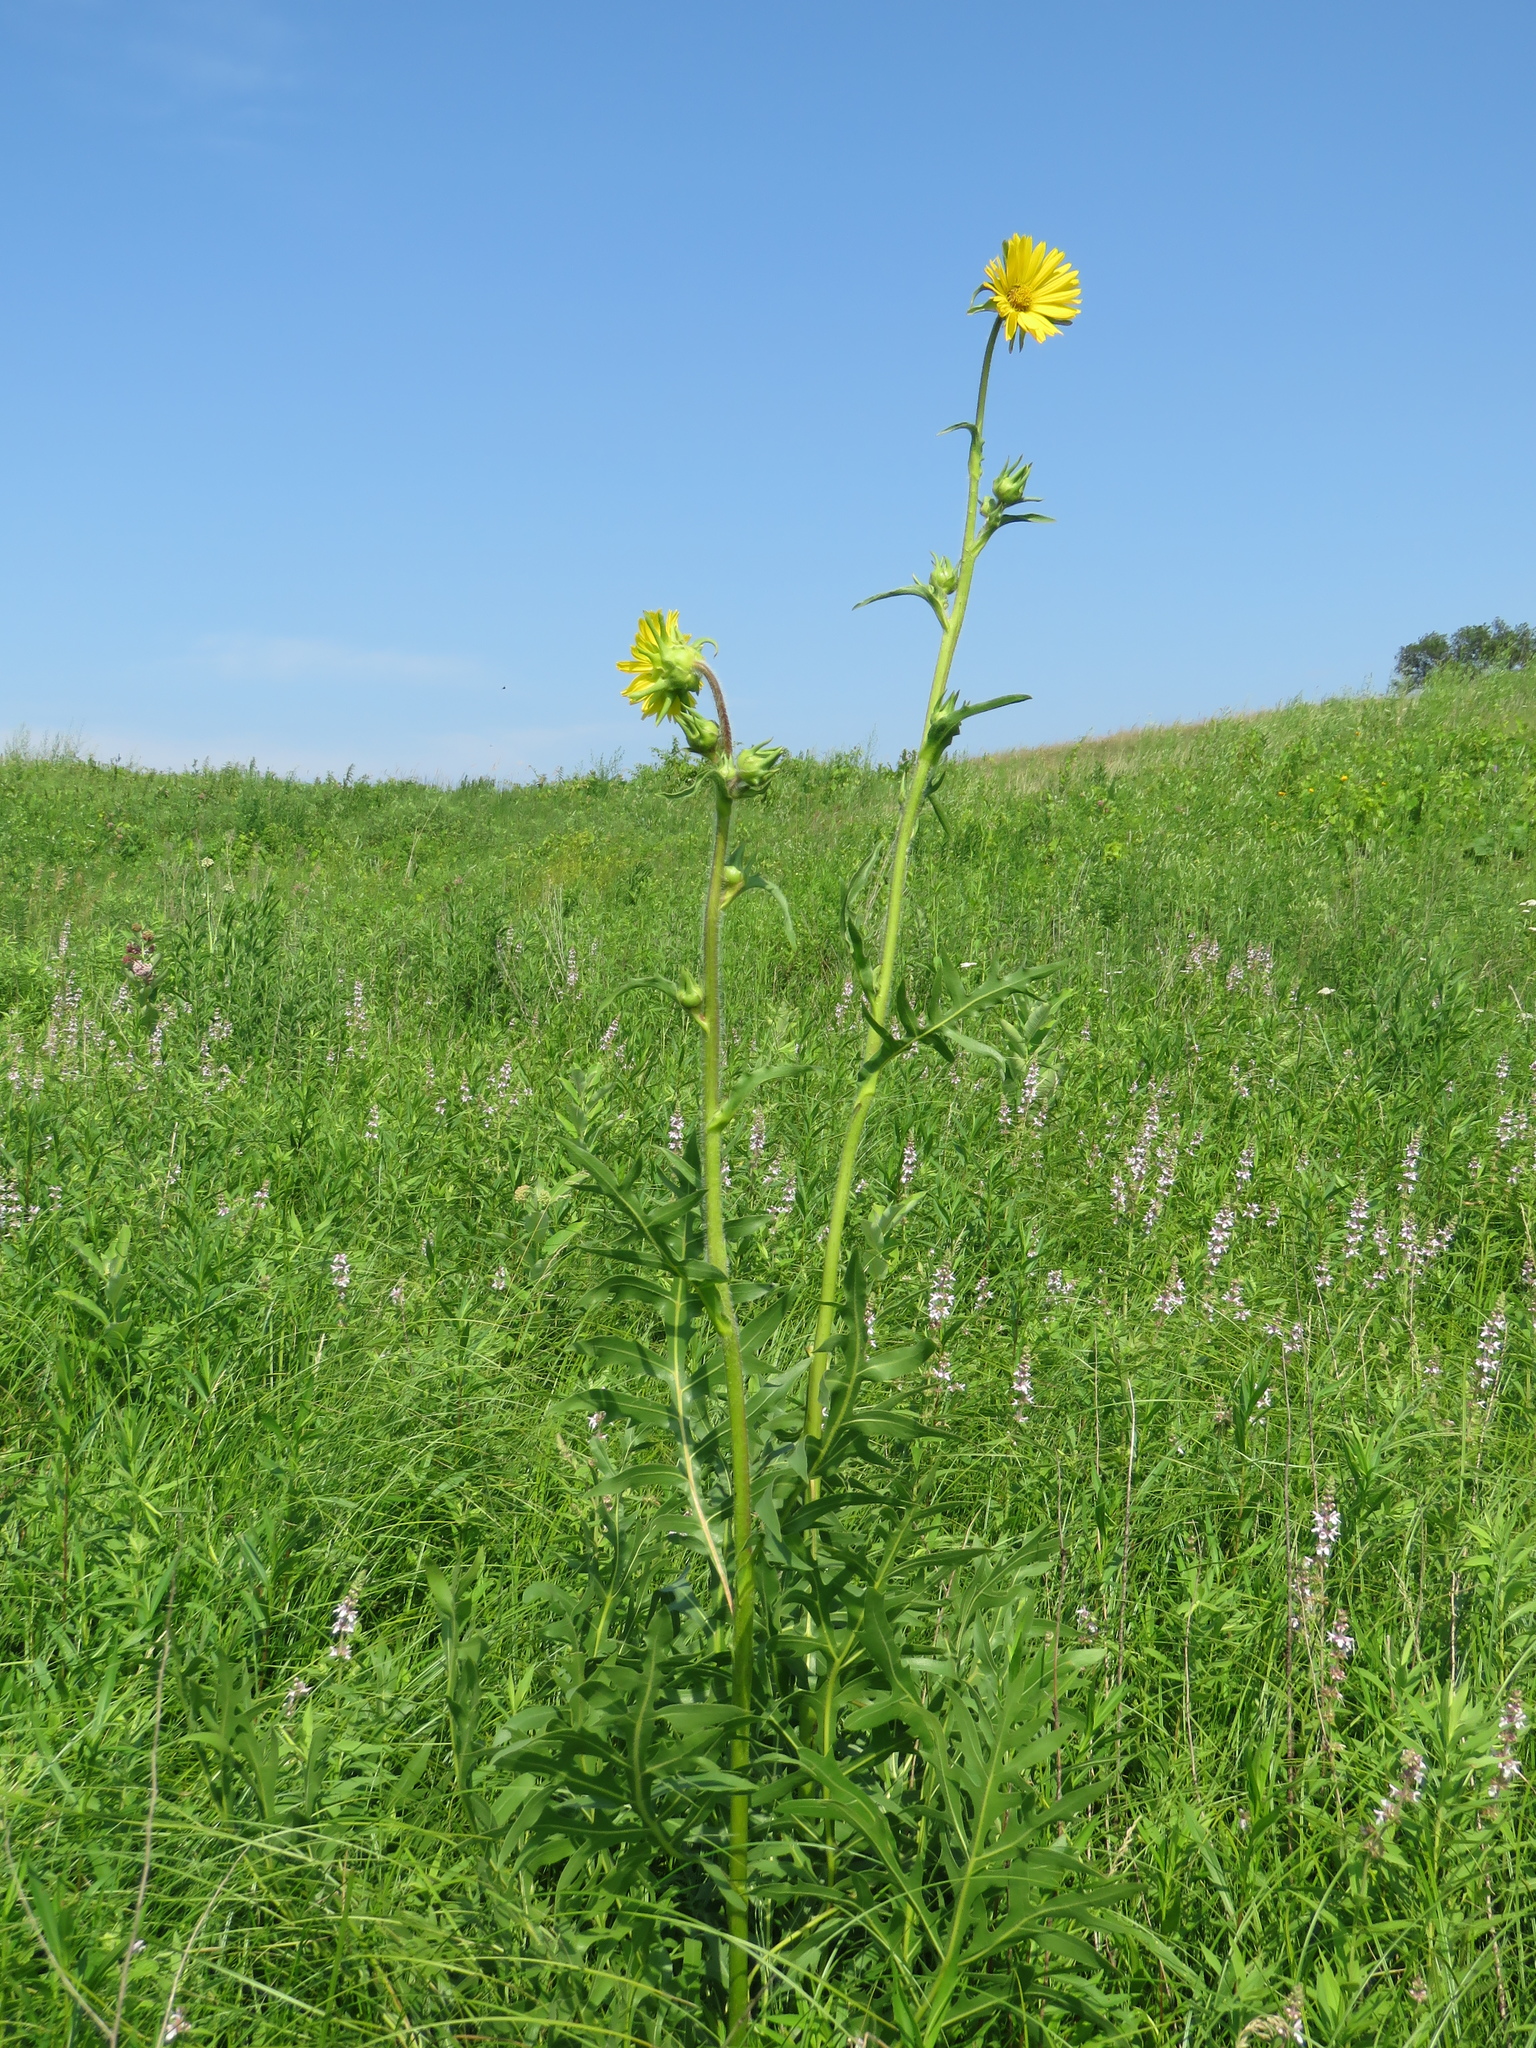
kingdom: Plantae
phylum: Tracheophyta
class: Magnoliopsida
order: Asterales
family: Asteraceae
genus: Silphium
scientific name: Silphium laciniatum
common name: Polarplant
